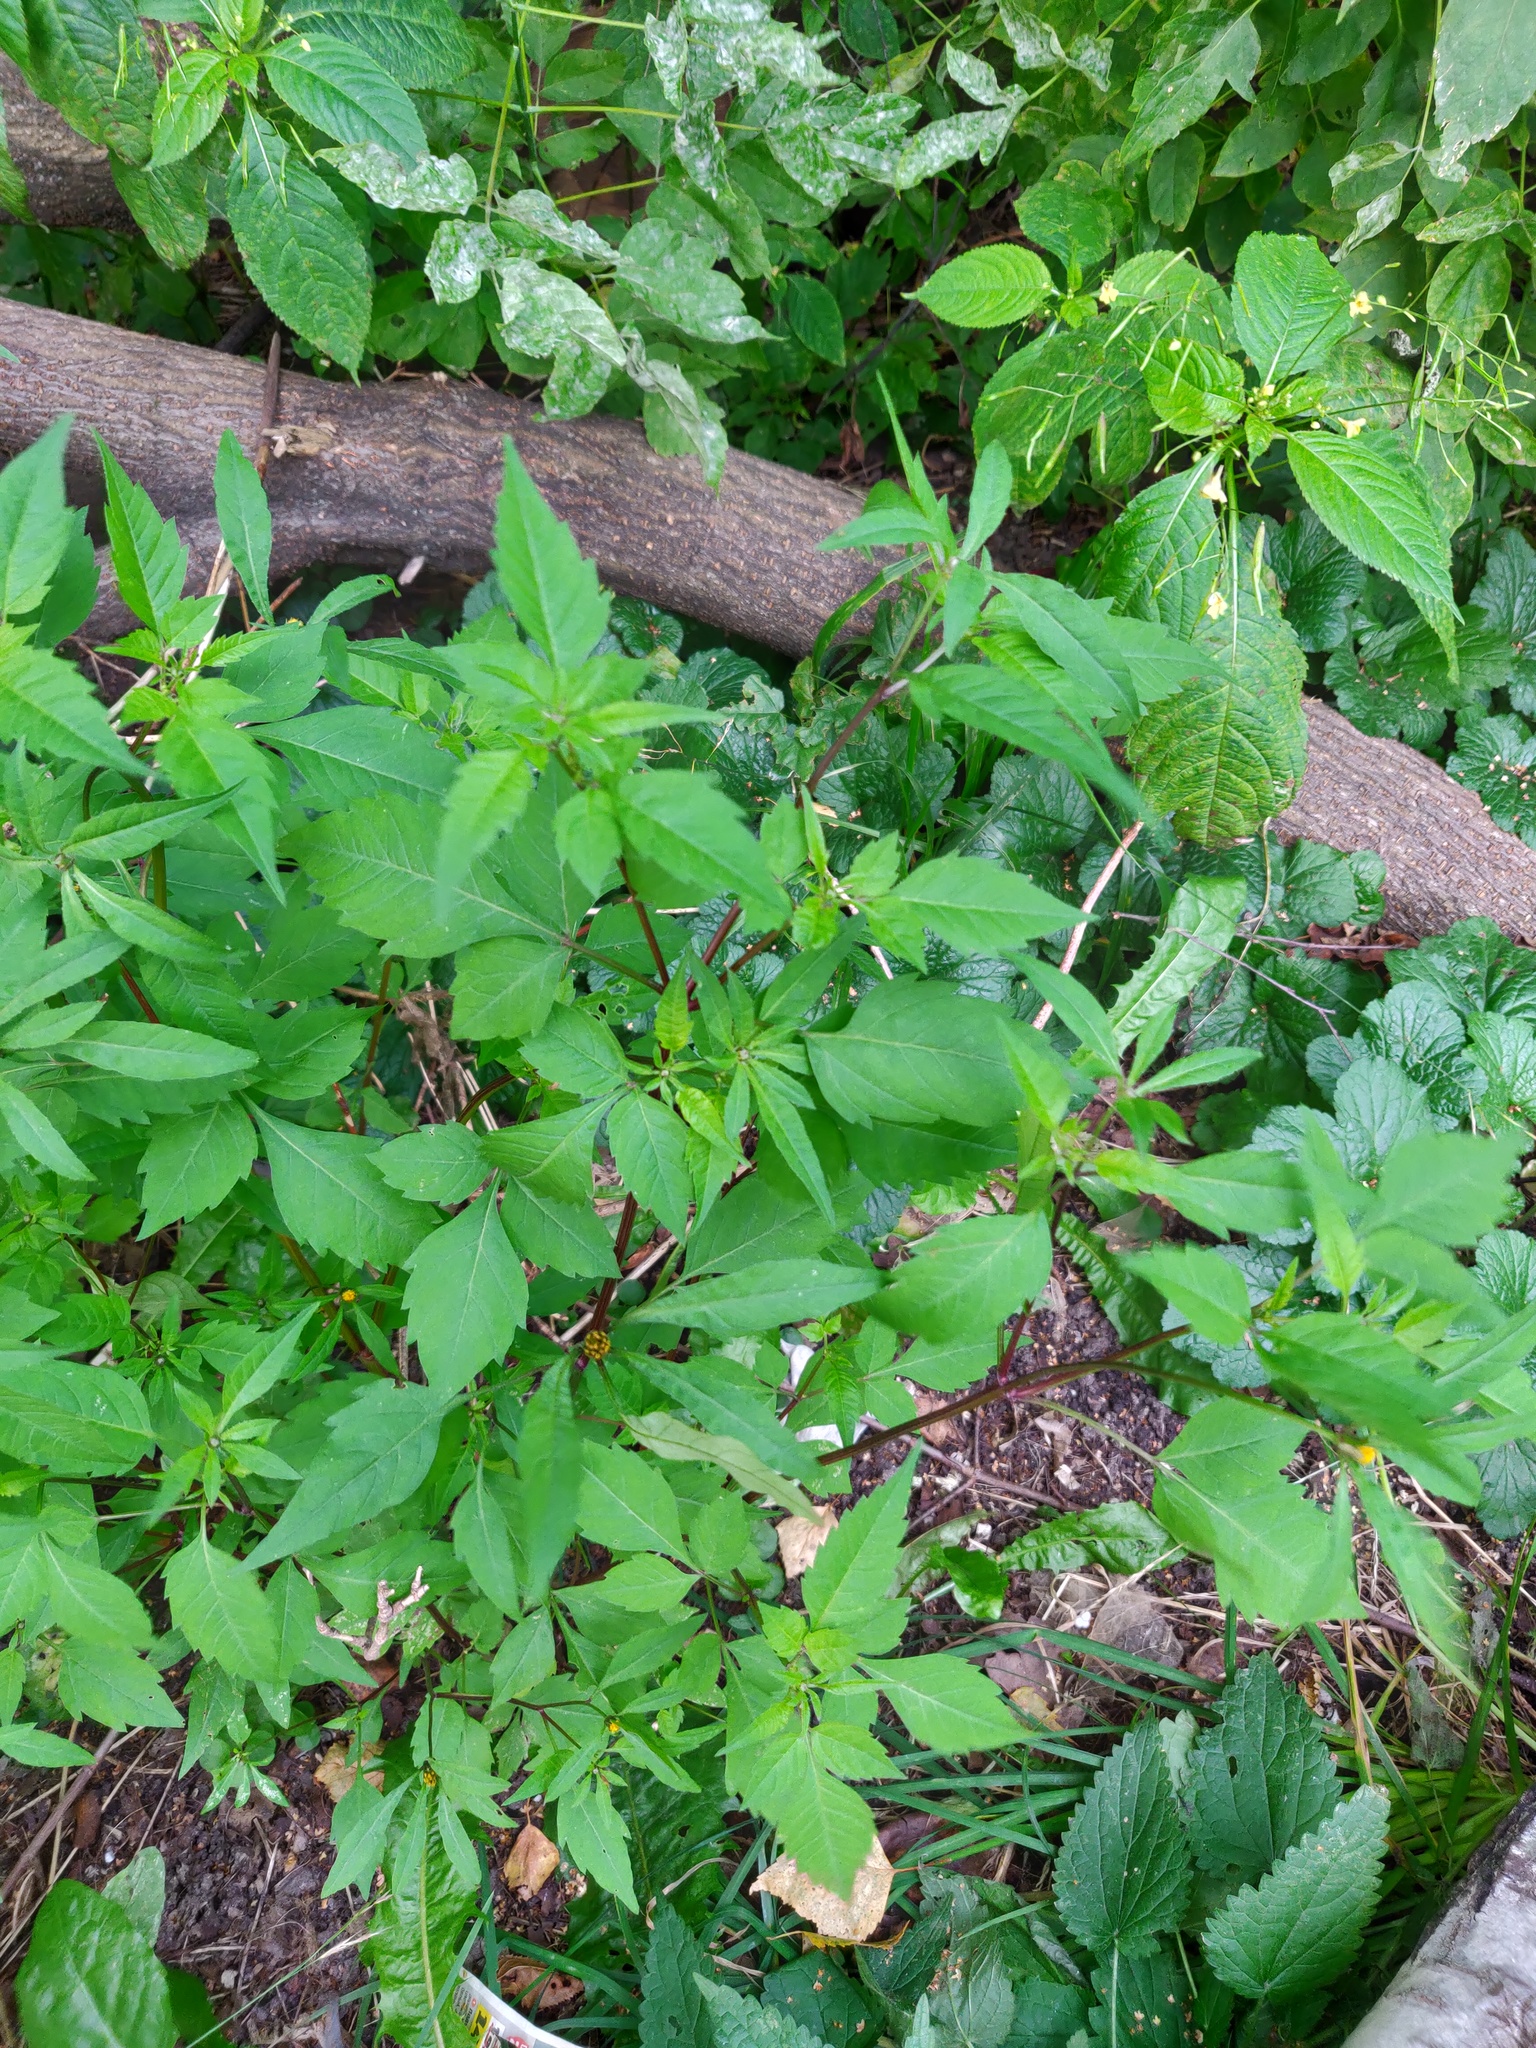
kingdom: Plantae
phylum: Tracheophyta
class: Magnoliopsida
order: Asterales
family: Asteraceae
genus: Bidens
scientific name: Bidens frondosa
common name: Beggarticks
